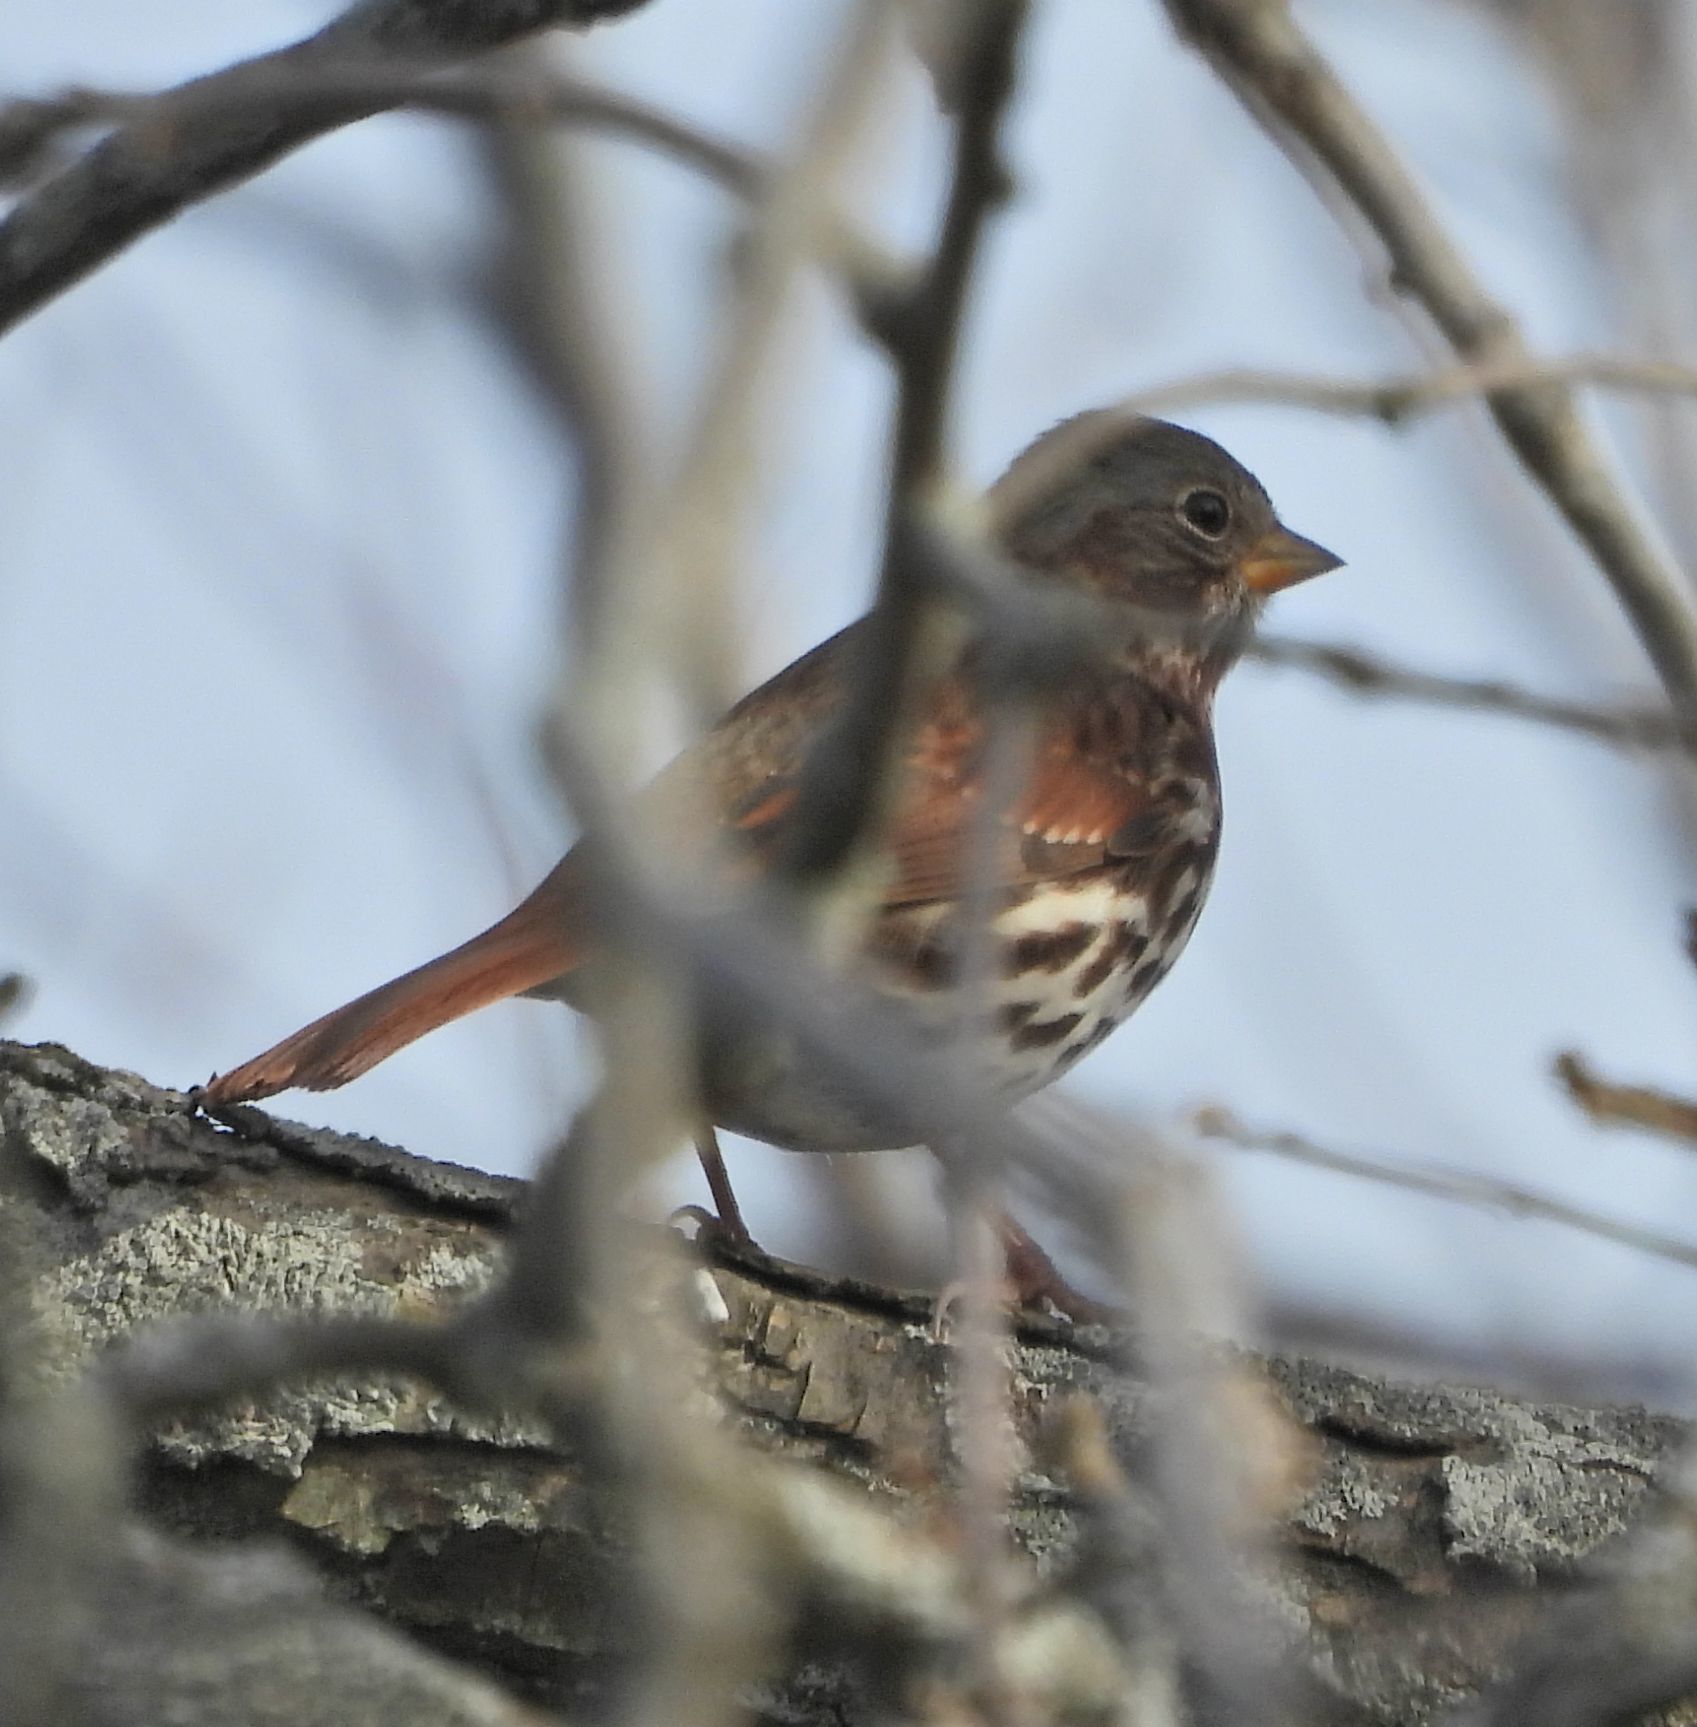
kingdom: Animalia
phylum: Chordata
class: Aves
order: Passeriformes
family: Passerellidae
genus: Passerella
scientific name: Passerella iliaca
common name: Fox sparrow
